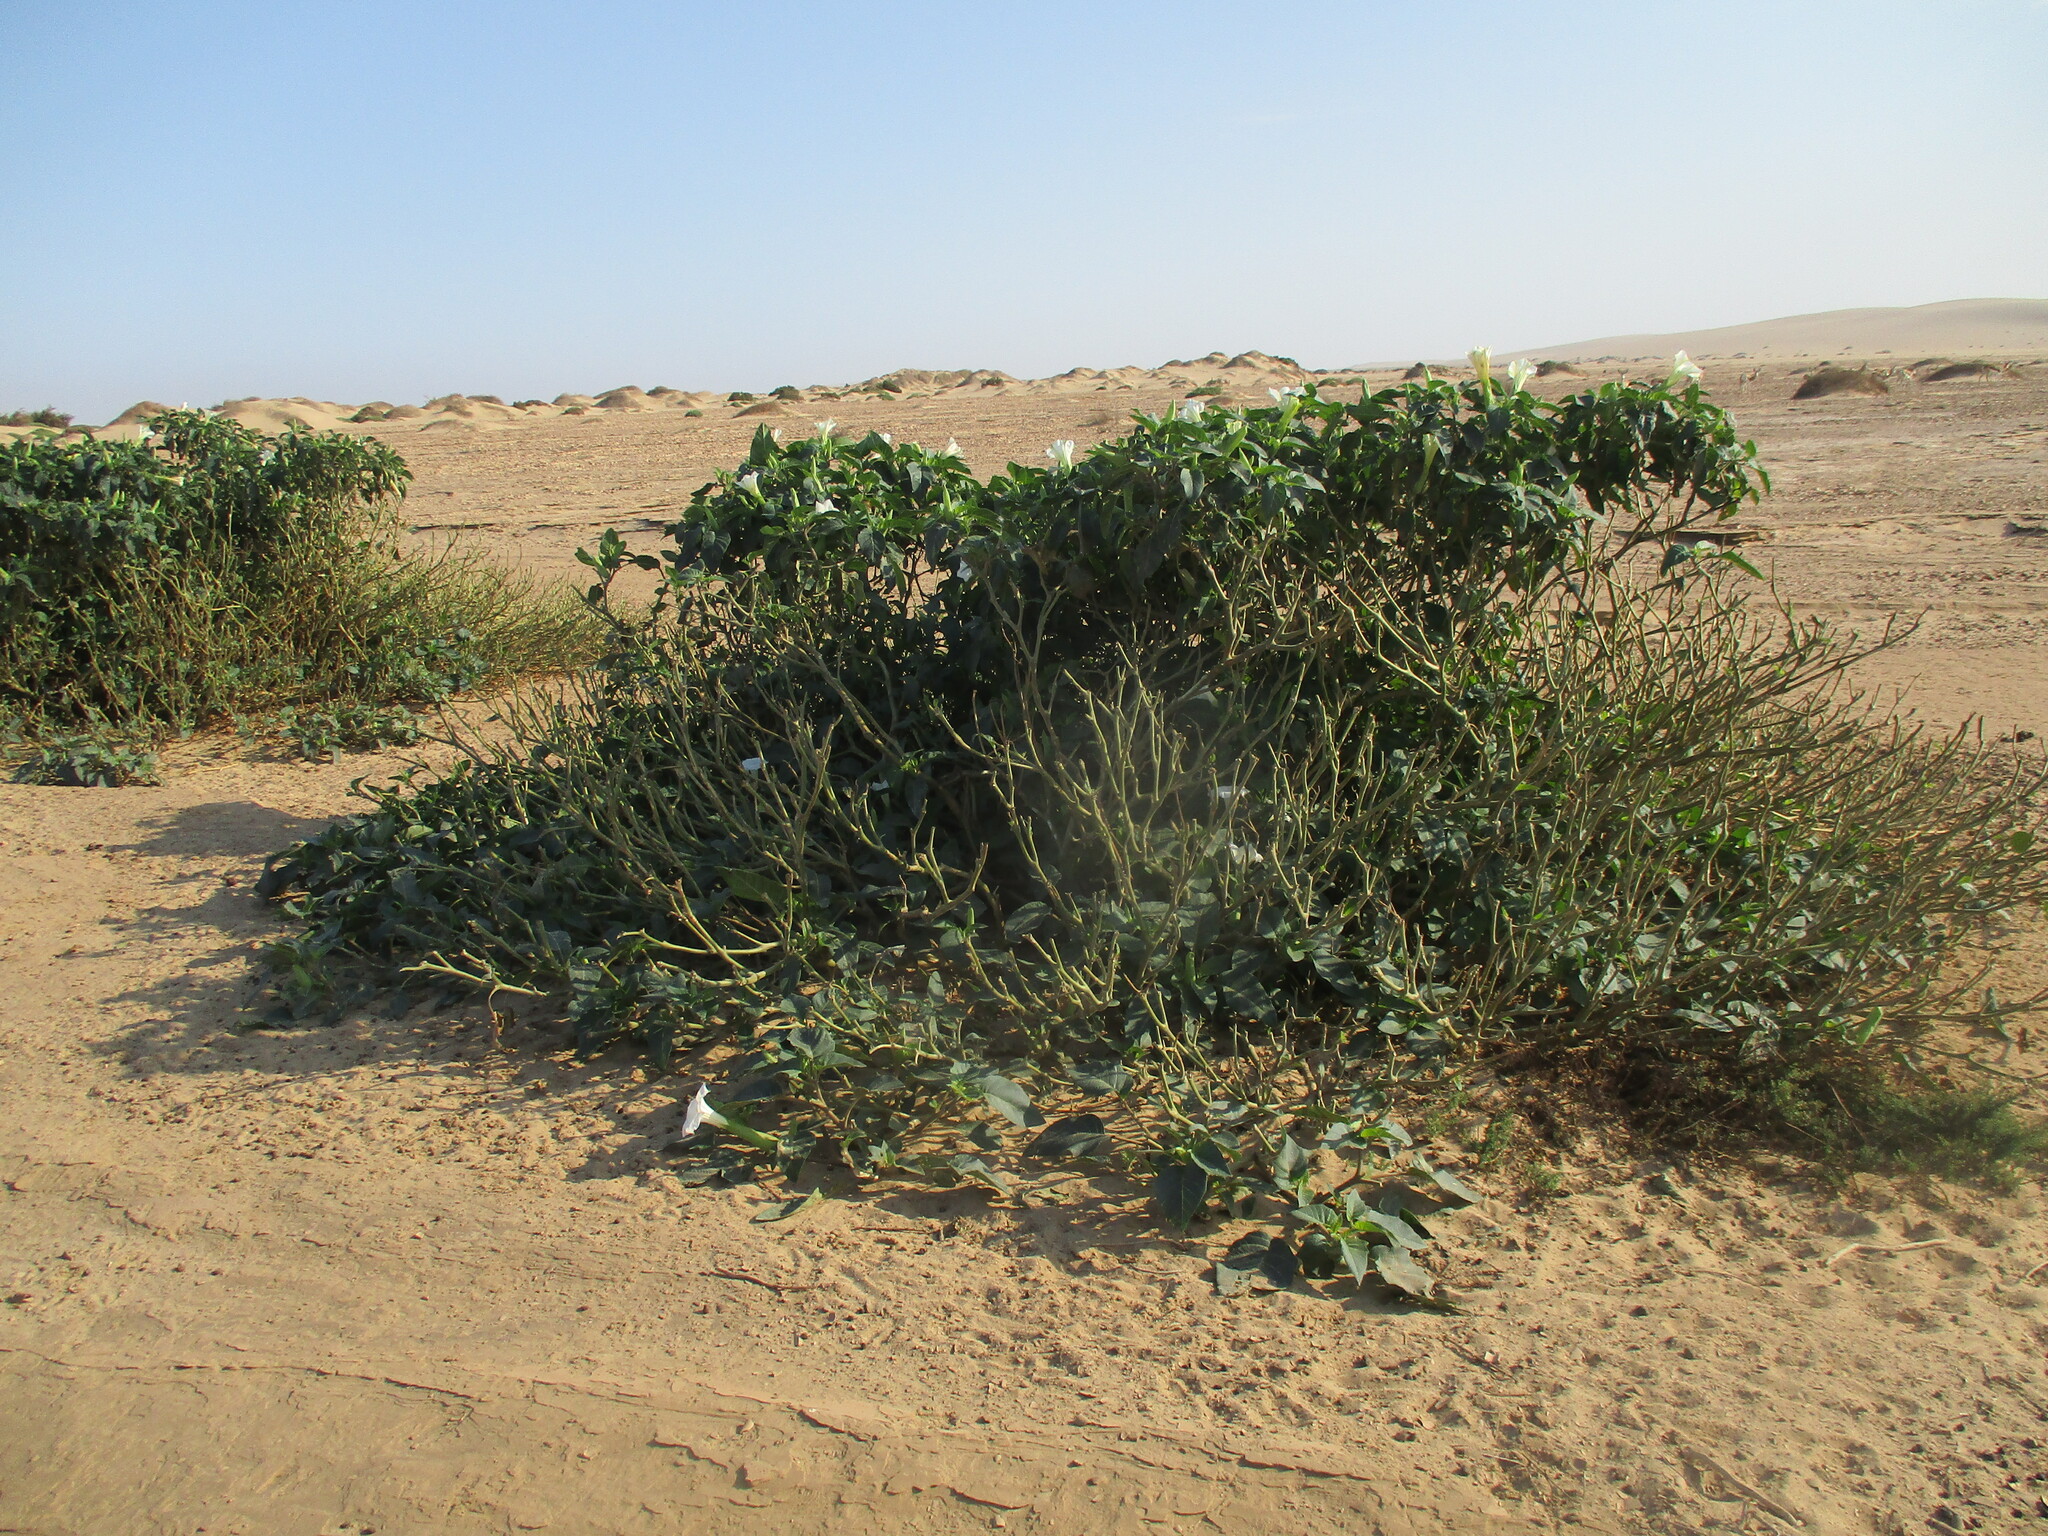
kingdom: Plantae
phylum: Tracheophyta
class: Magnoliopsida
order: Solanales
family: Solanaceae
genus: Datura
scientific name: Datura innoxia
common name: Downy thorn-apple
